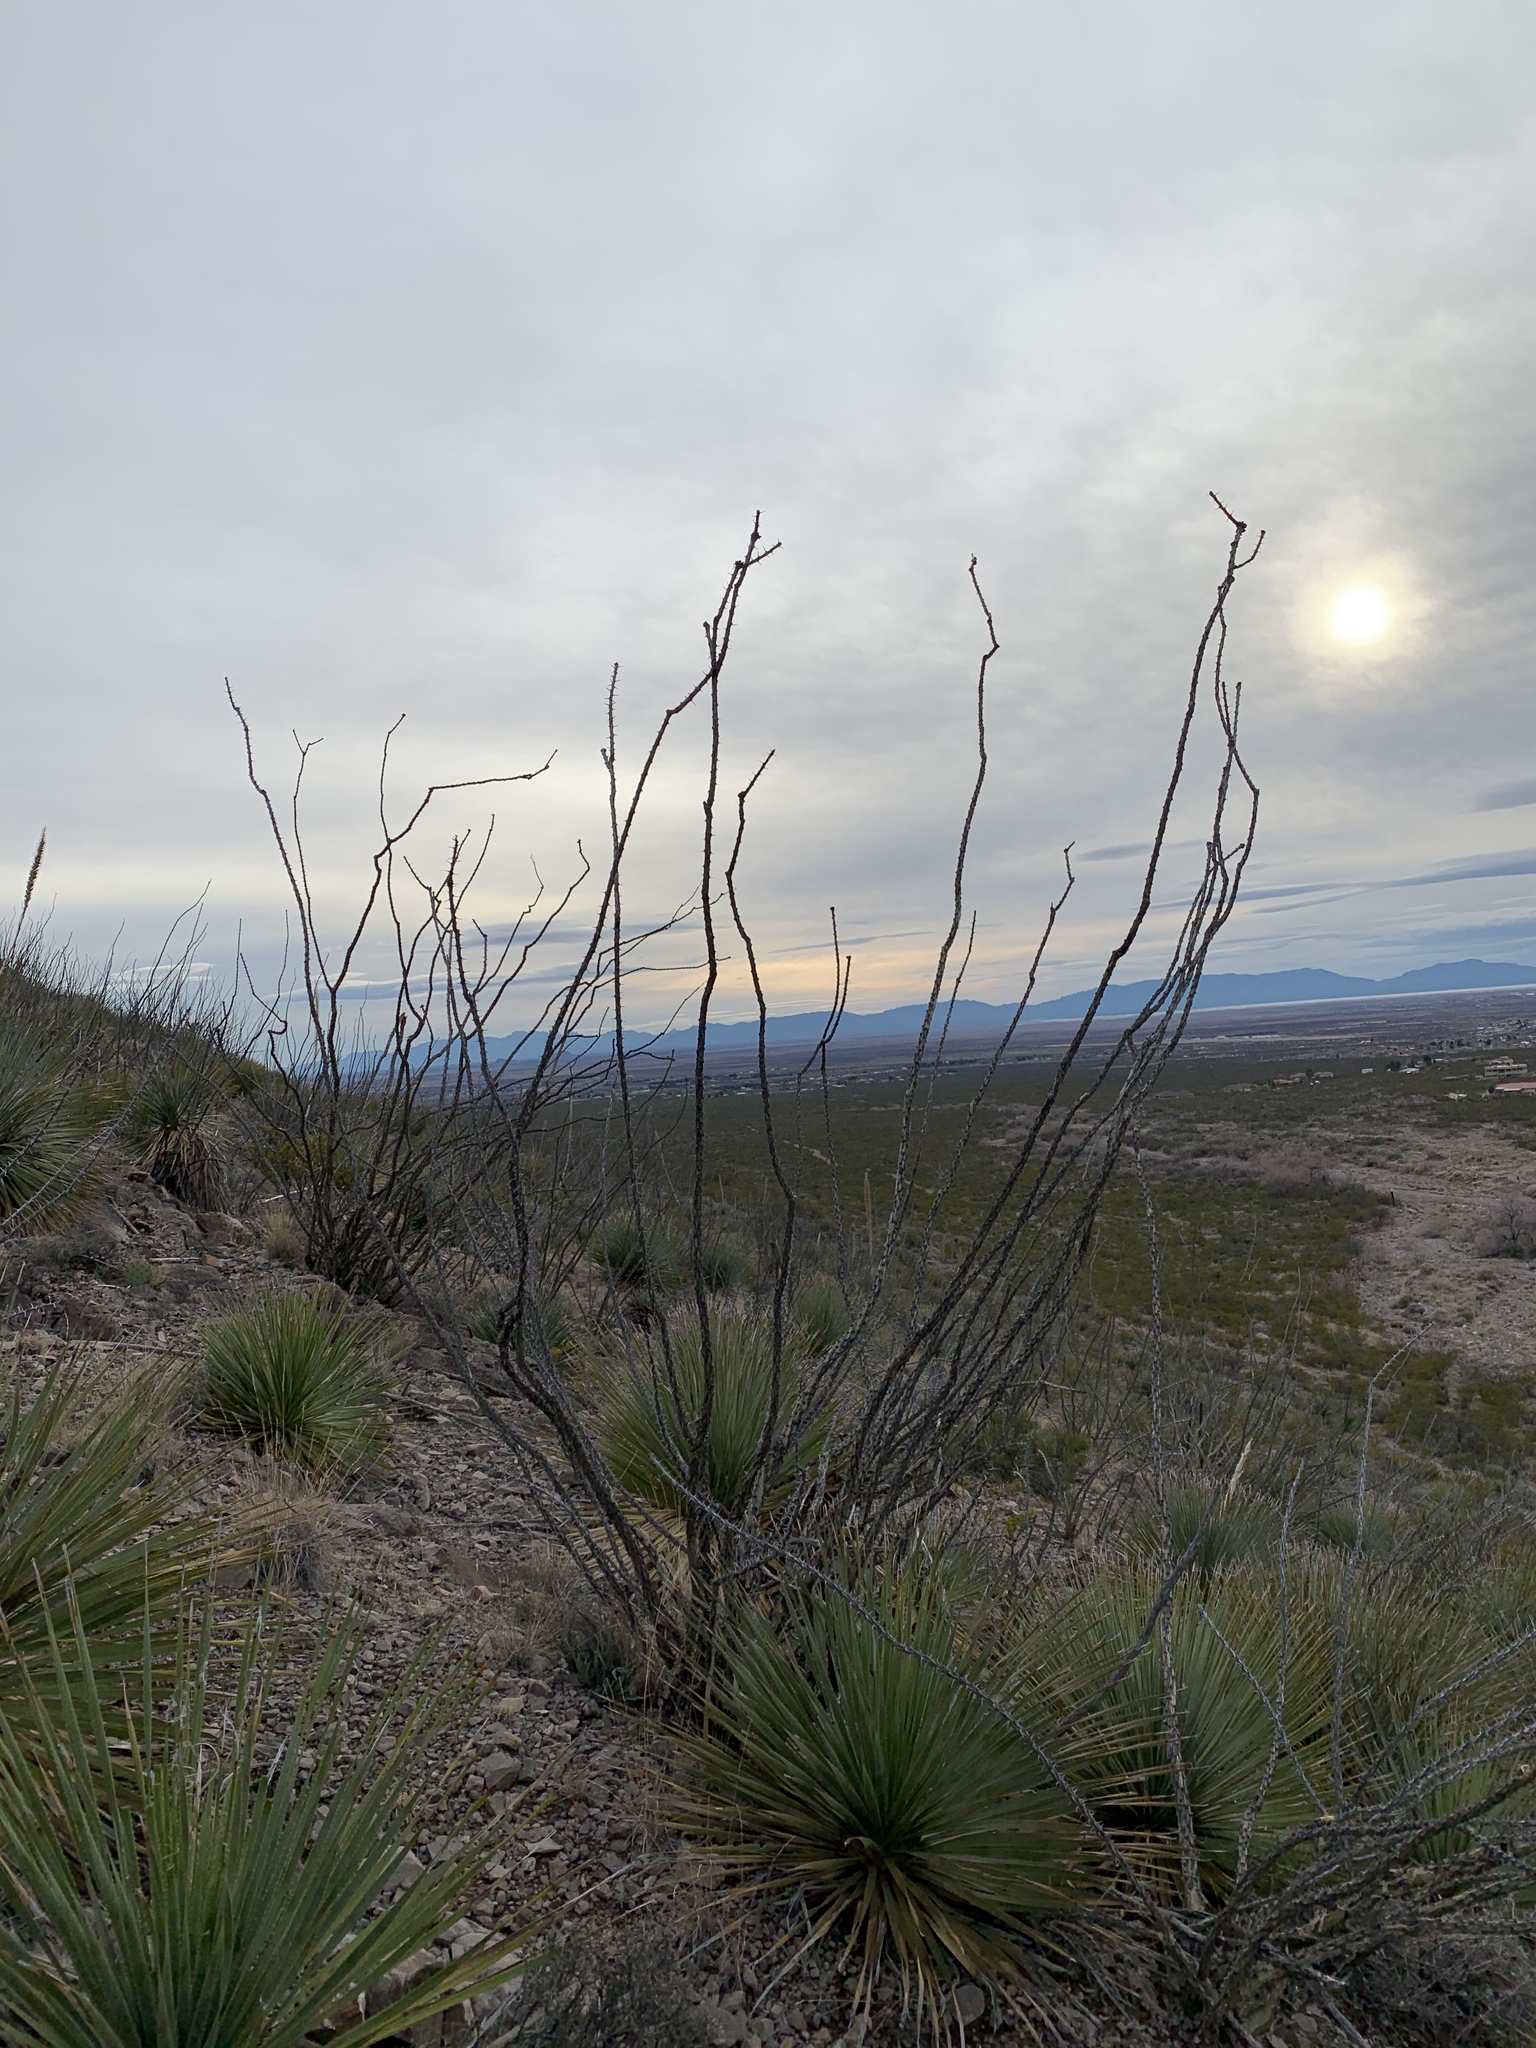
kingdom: Plantae
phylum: Tracheophyta
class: Magnoliopsida
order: Ericales
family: Fouquieriaceae
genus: Fouquieria
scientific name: Fouquieria splendens
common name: Vine-cactus
